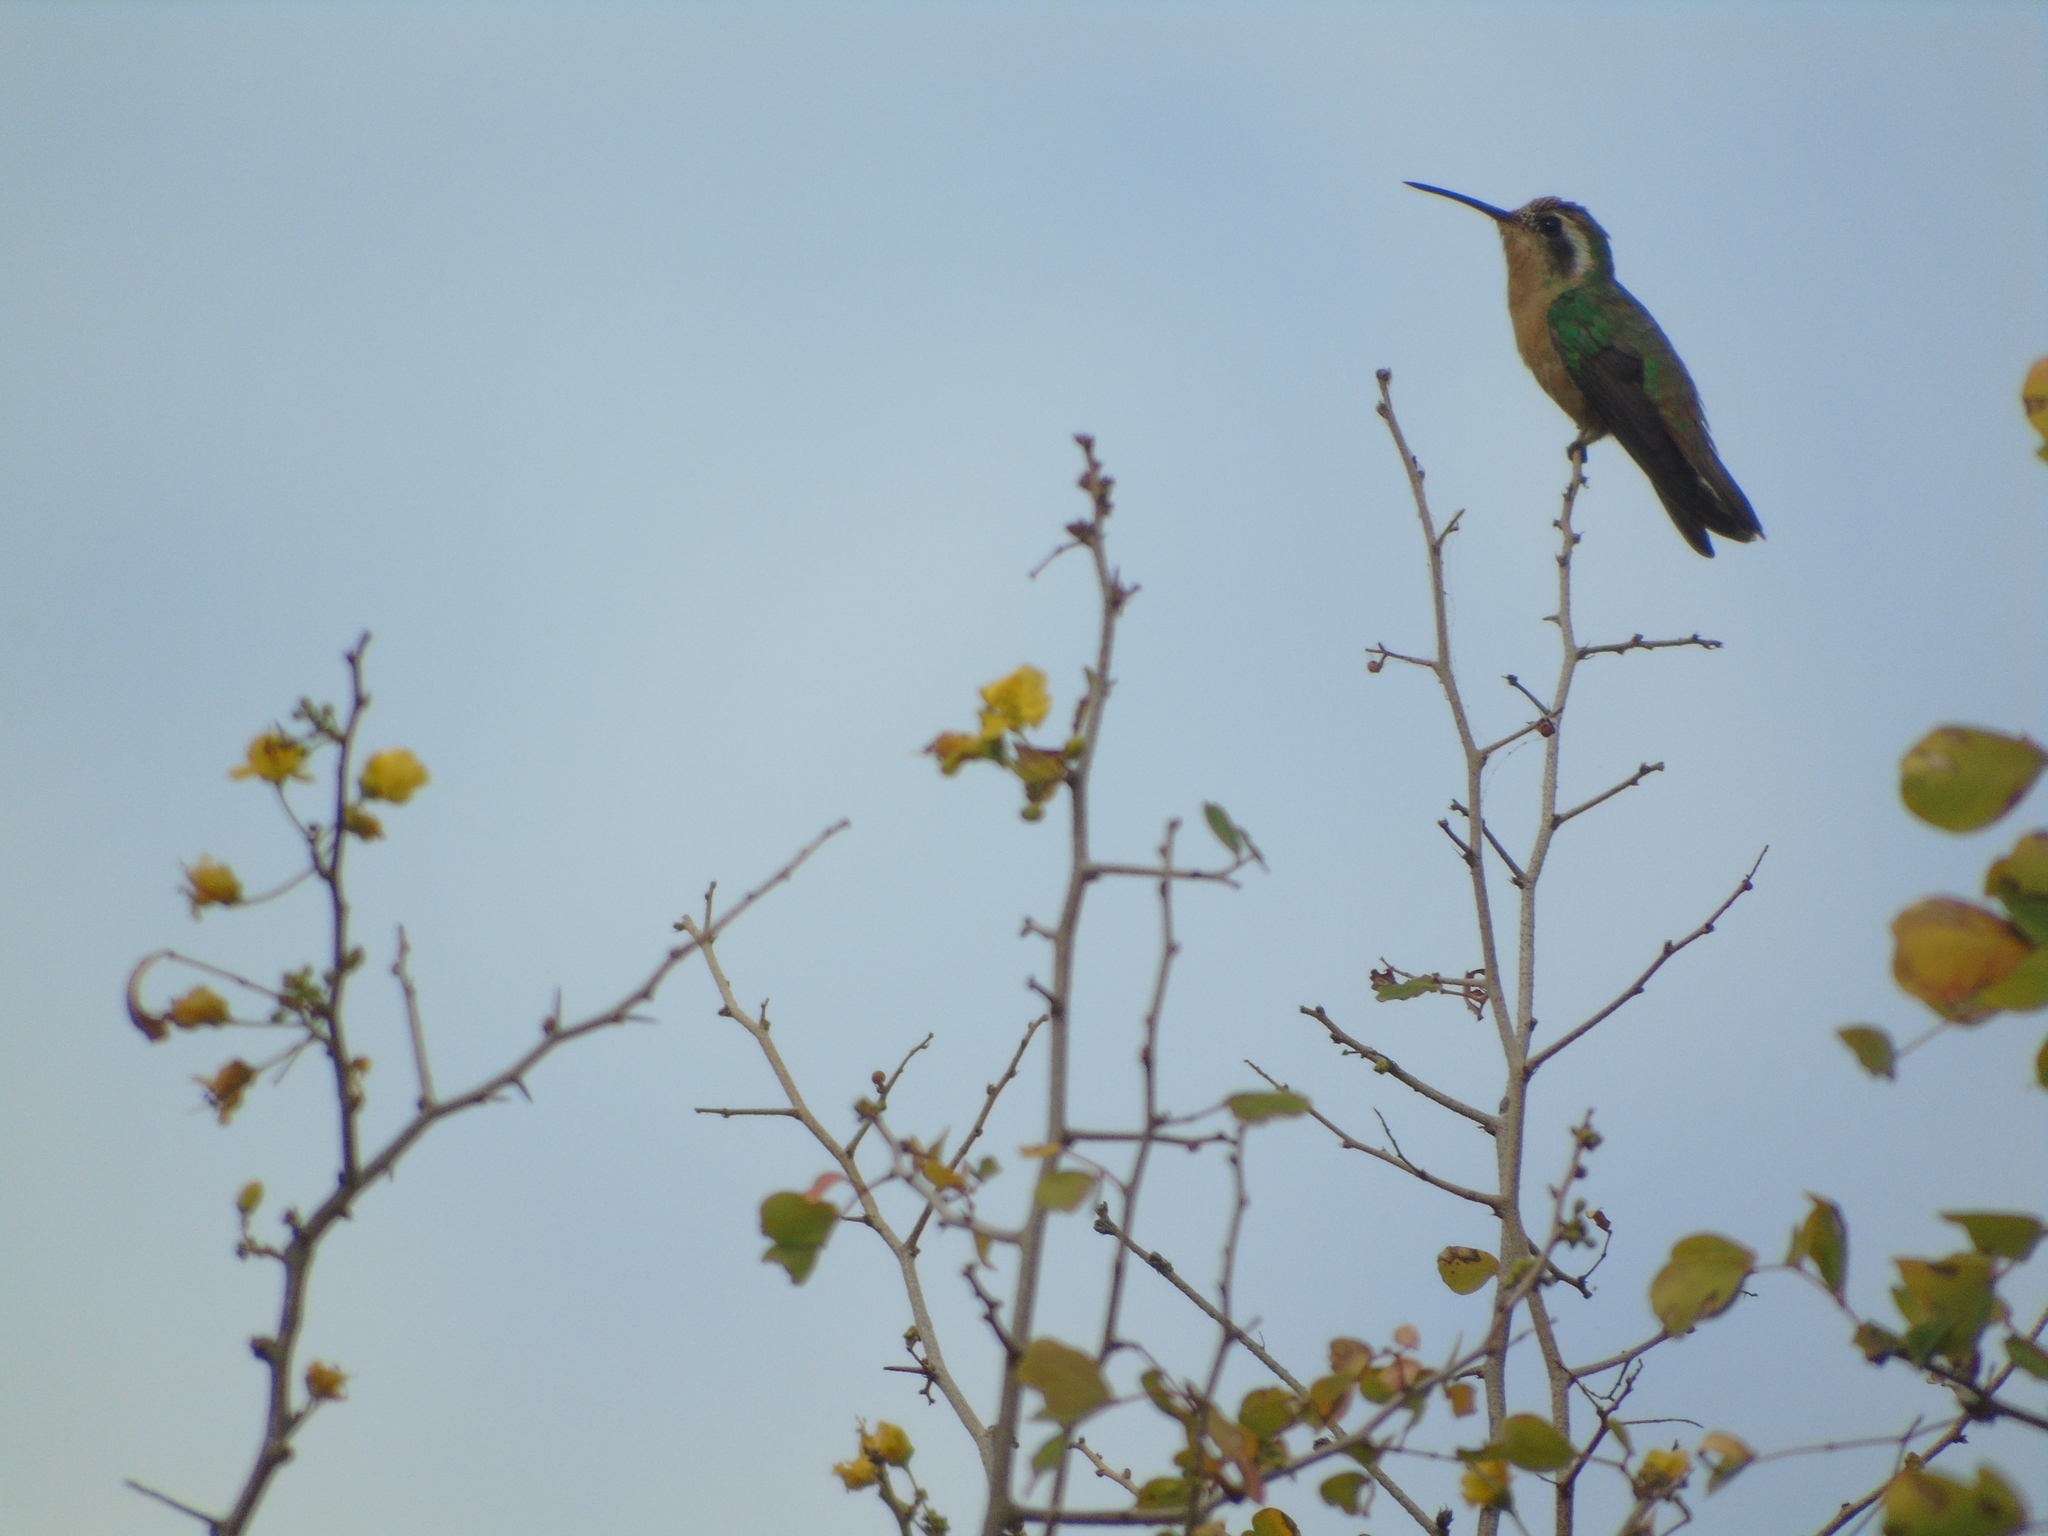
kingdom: Animalia
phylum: Chordata
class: Aves
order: Apodiformes
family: Trochilidae
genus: Basilinna
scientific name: Basilinna xantusii
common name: Xantus's hummingbird
